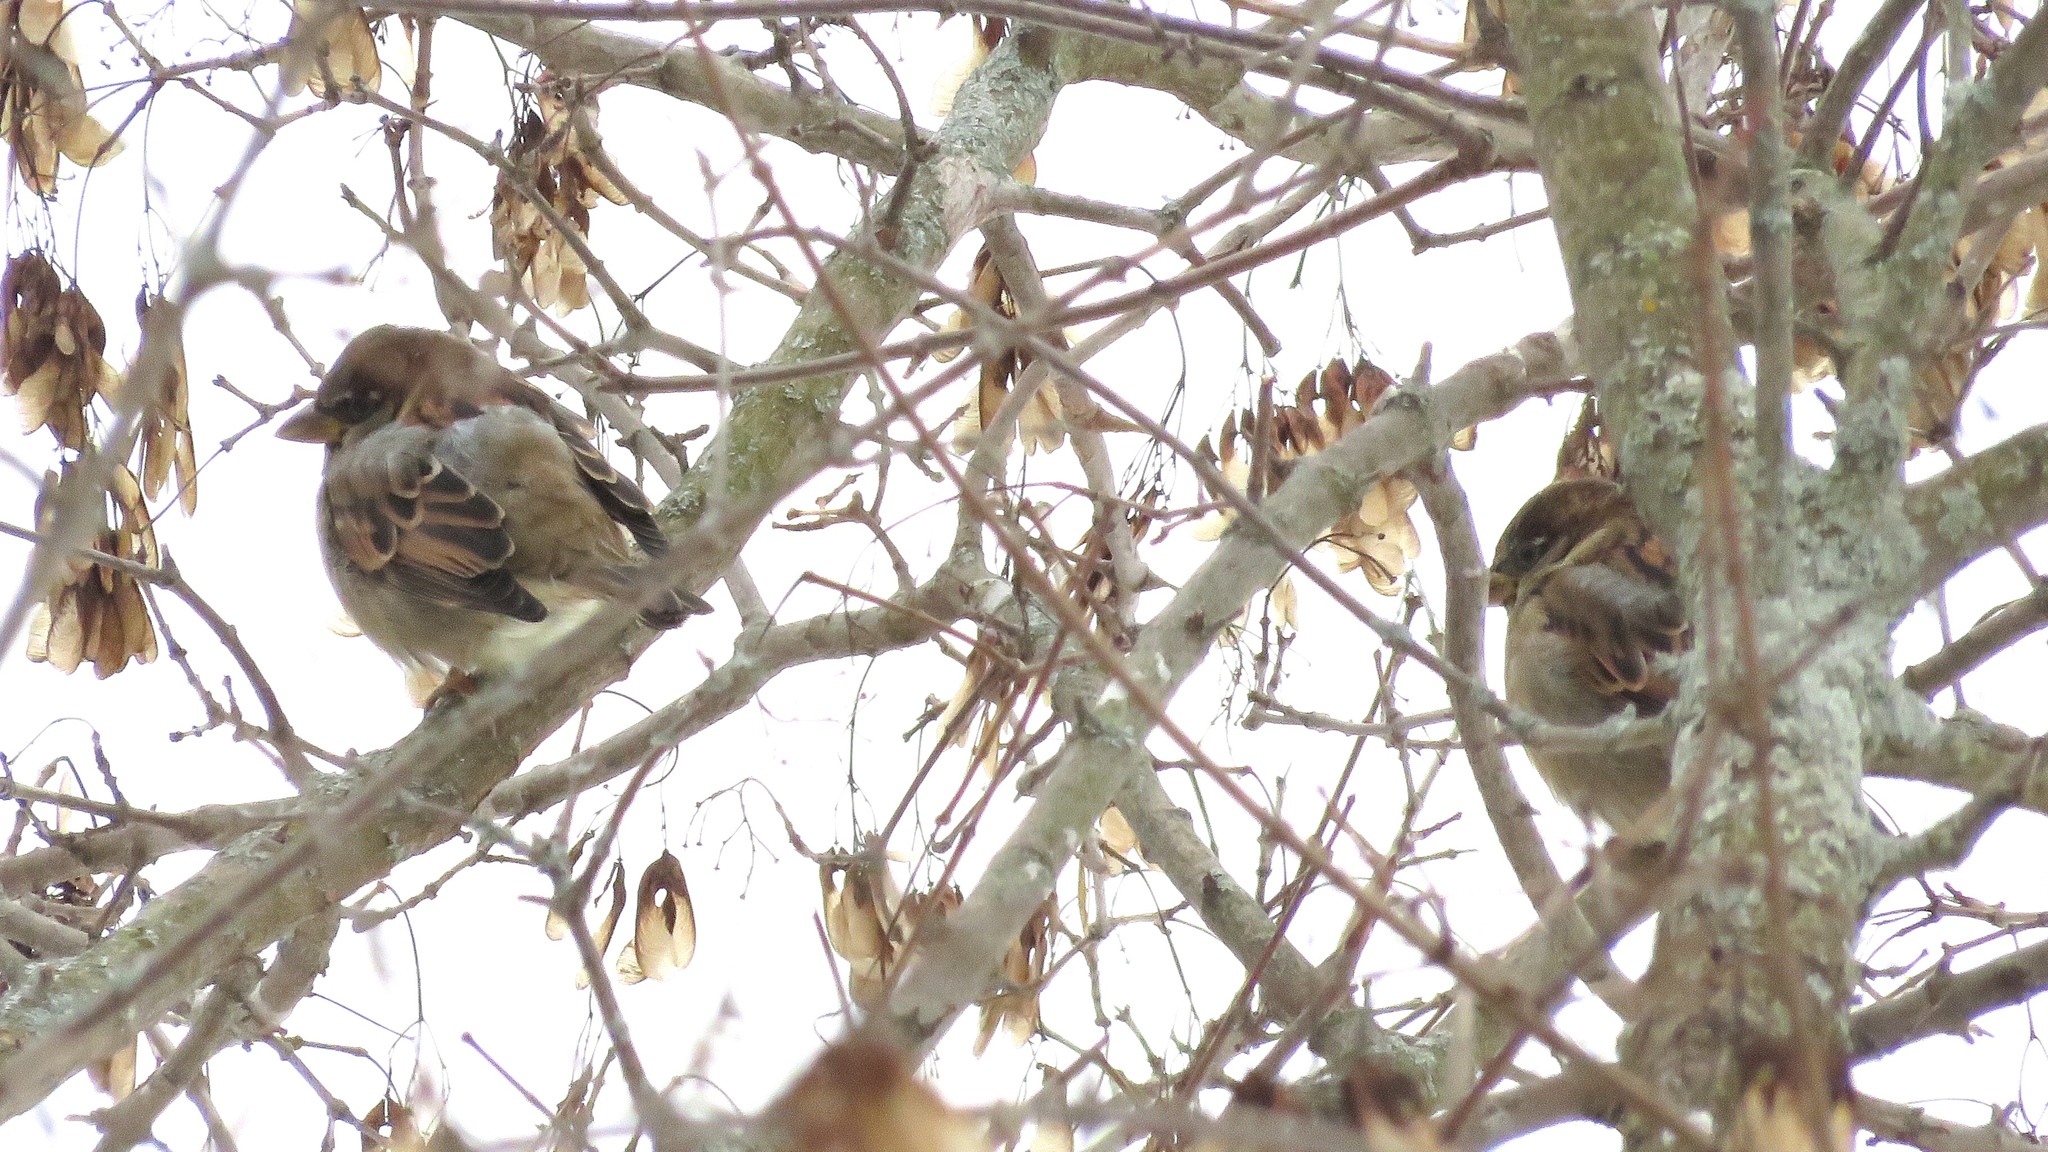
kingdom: Animalia
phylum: Chordata
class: Aves
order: Passeriformes
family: Passeridae
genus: Passer
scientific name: Passer domesticus
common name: House sparrow
